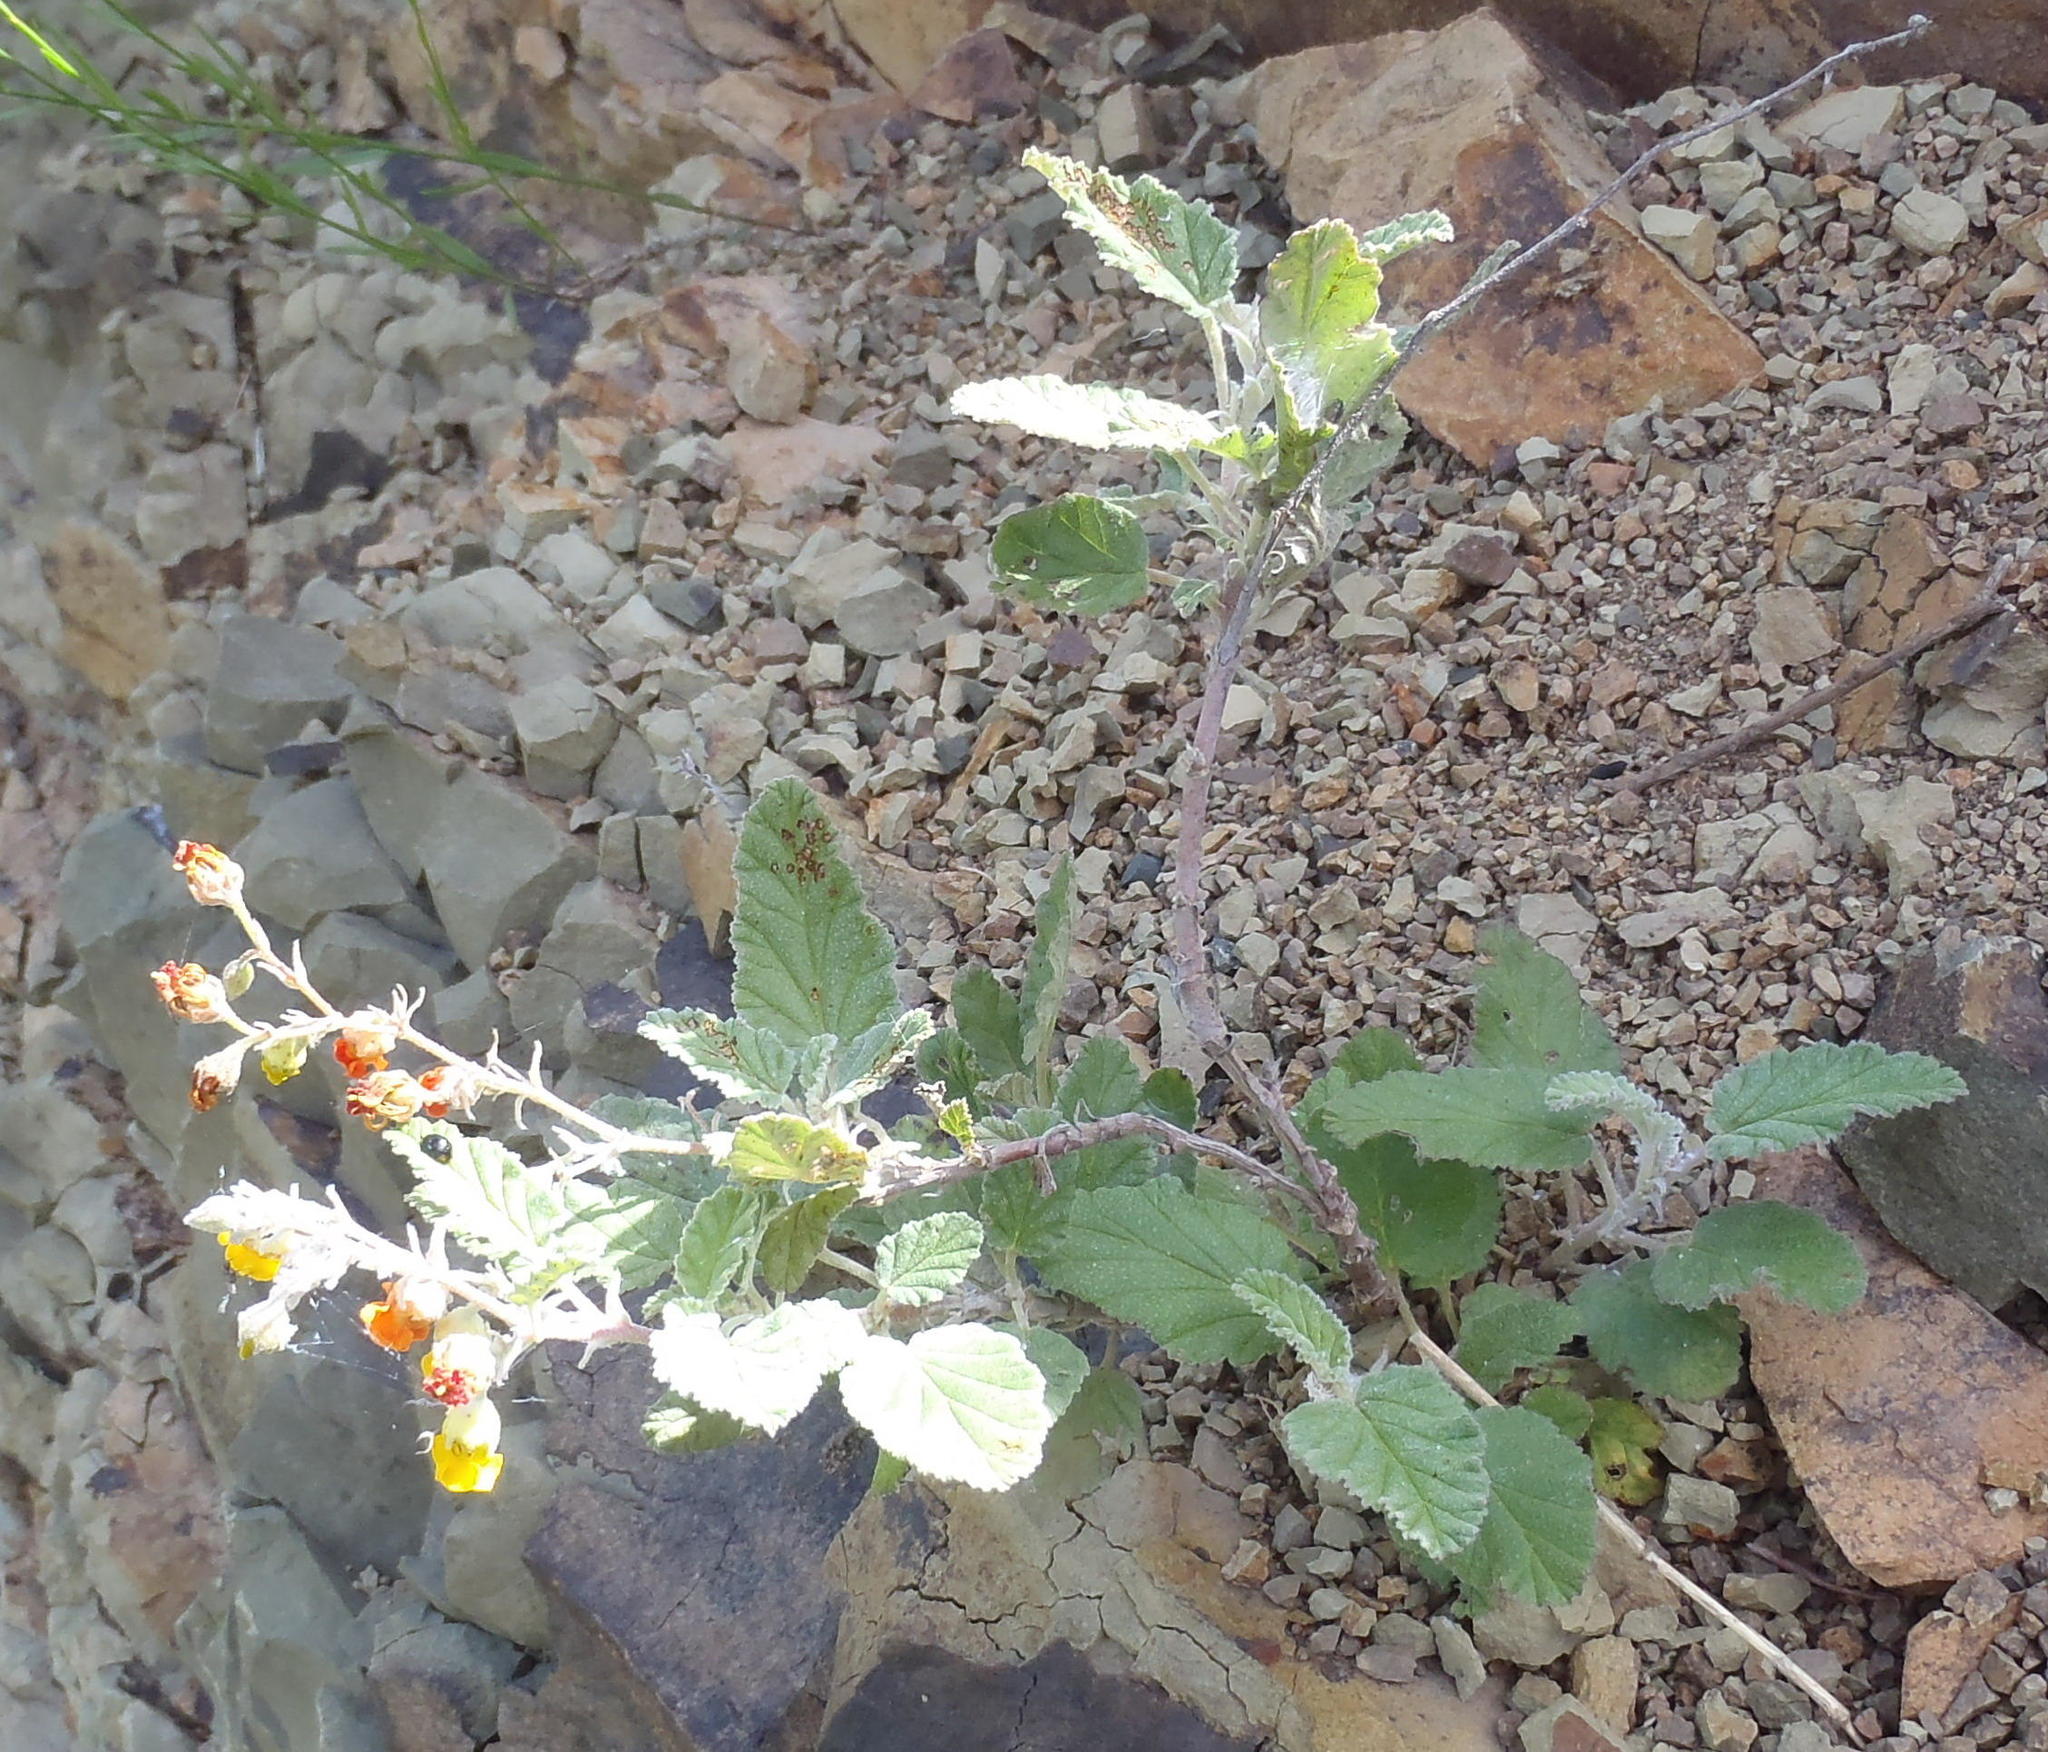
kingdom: Plantae
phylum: Tracheophyta
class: Magnoliopsida
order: Malvales
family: Malvaceae
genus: Hermannia
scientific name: Hermannia althaeoides
